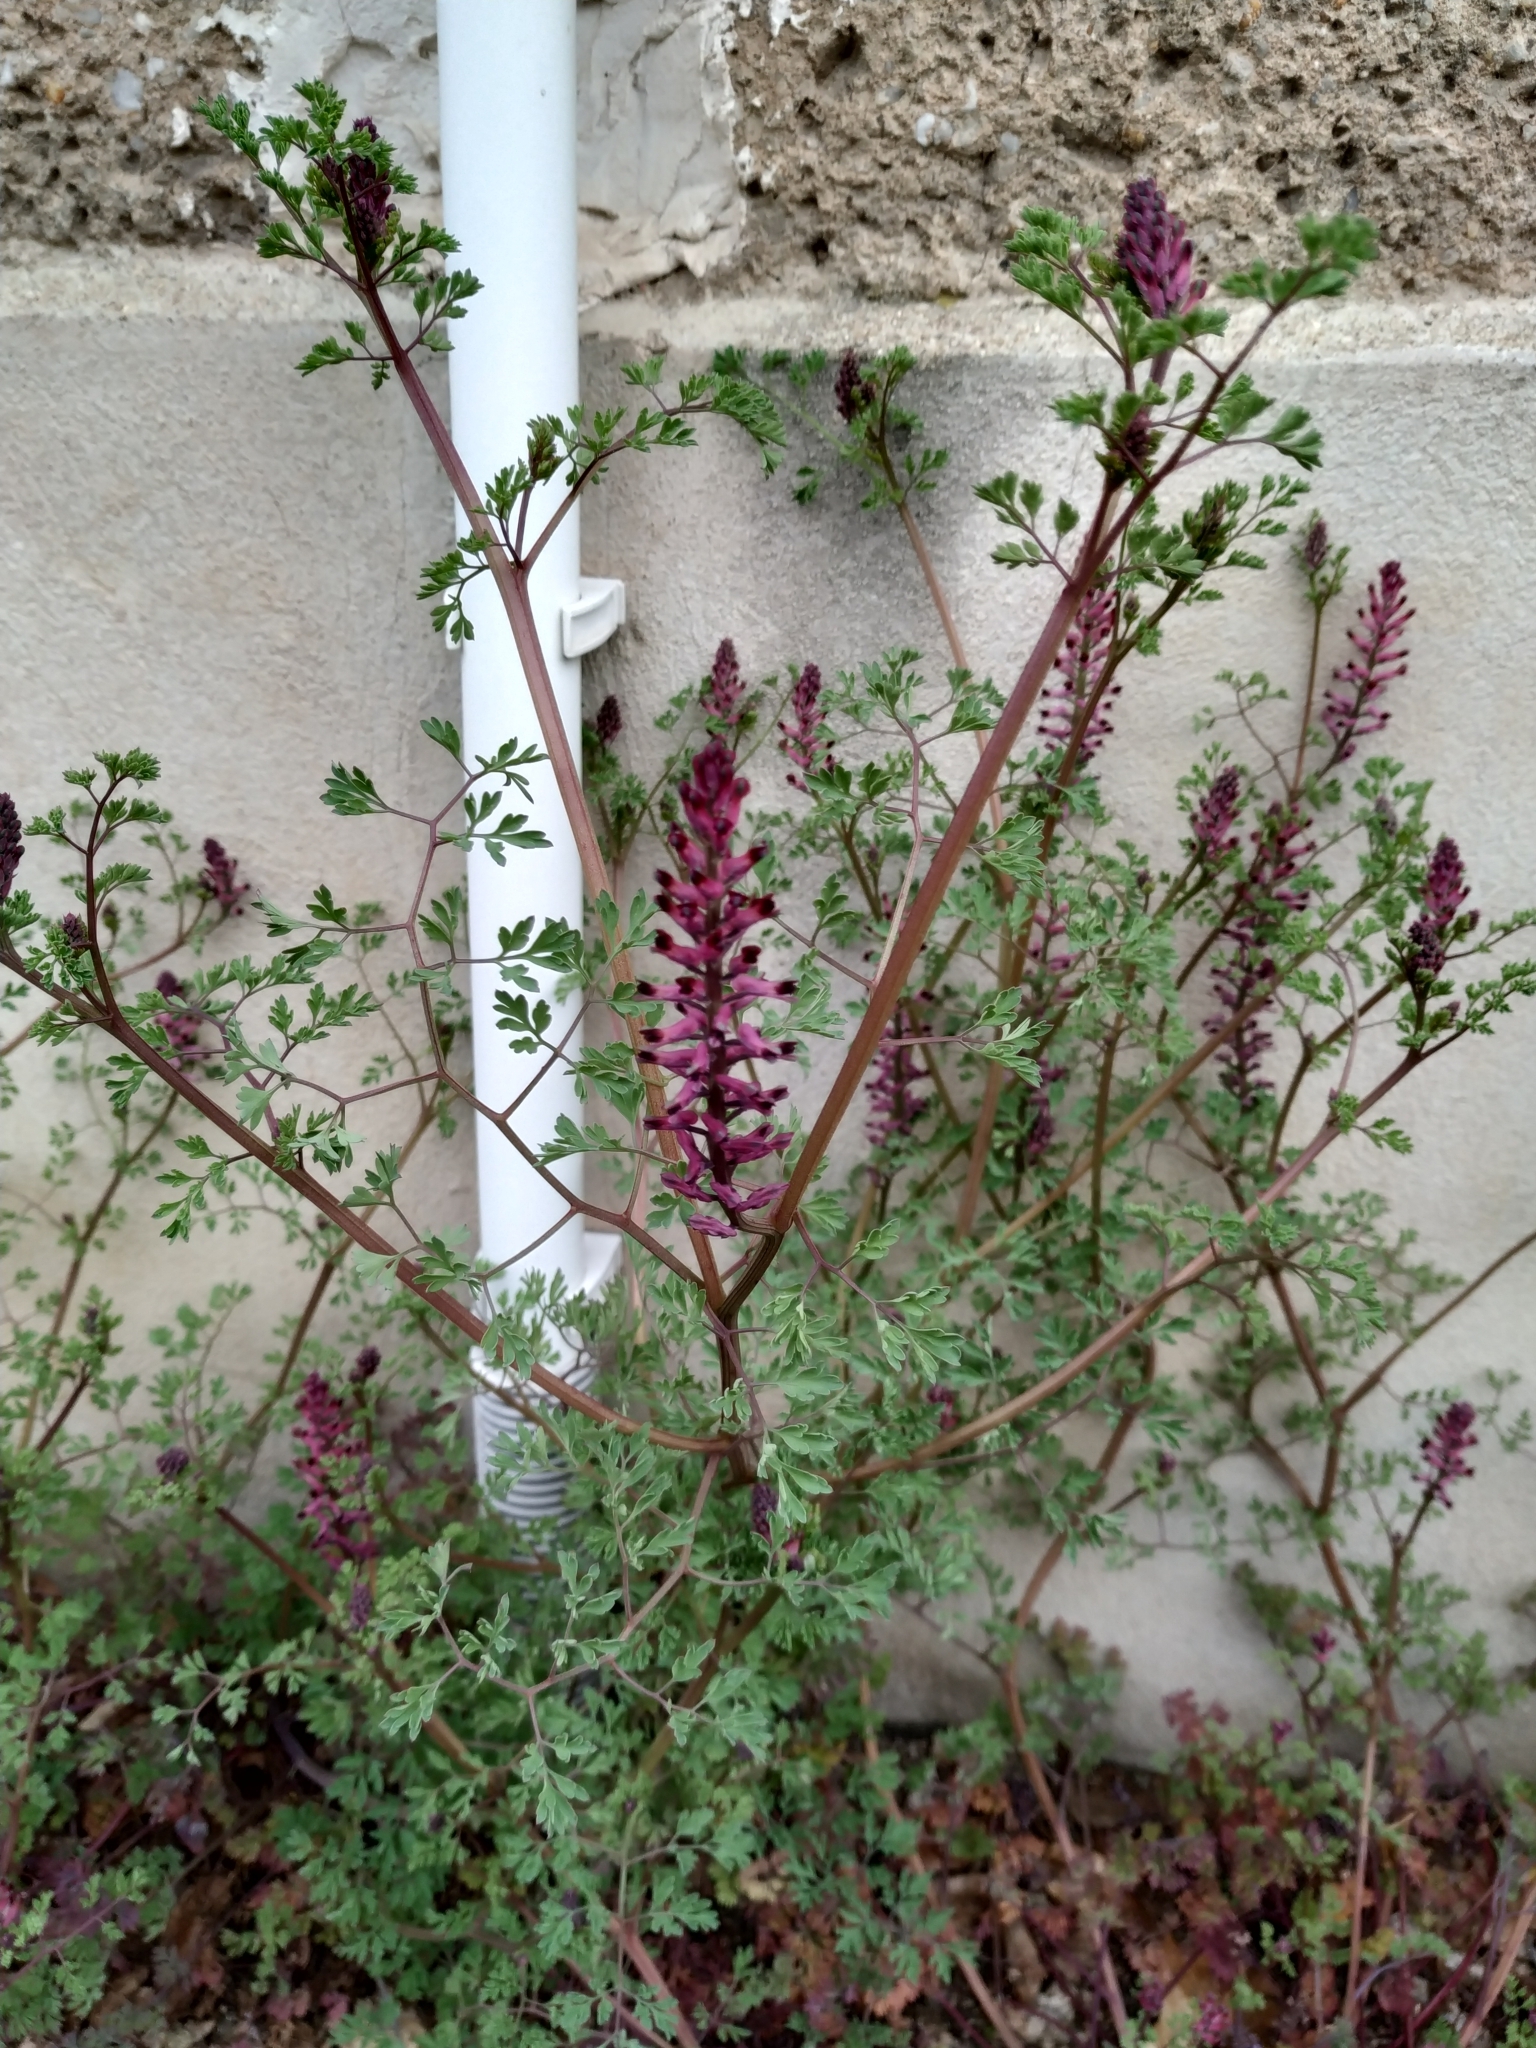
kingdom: Plantae
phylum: Tracheophyta
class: Magnoliopsida
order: Ranunculales
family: Papaveraceae
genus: Fumaria
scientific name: Fumaria officinalis
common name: Common fumitory
